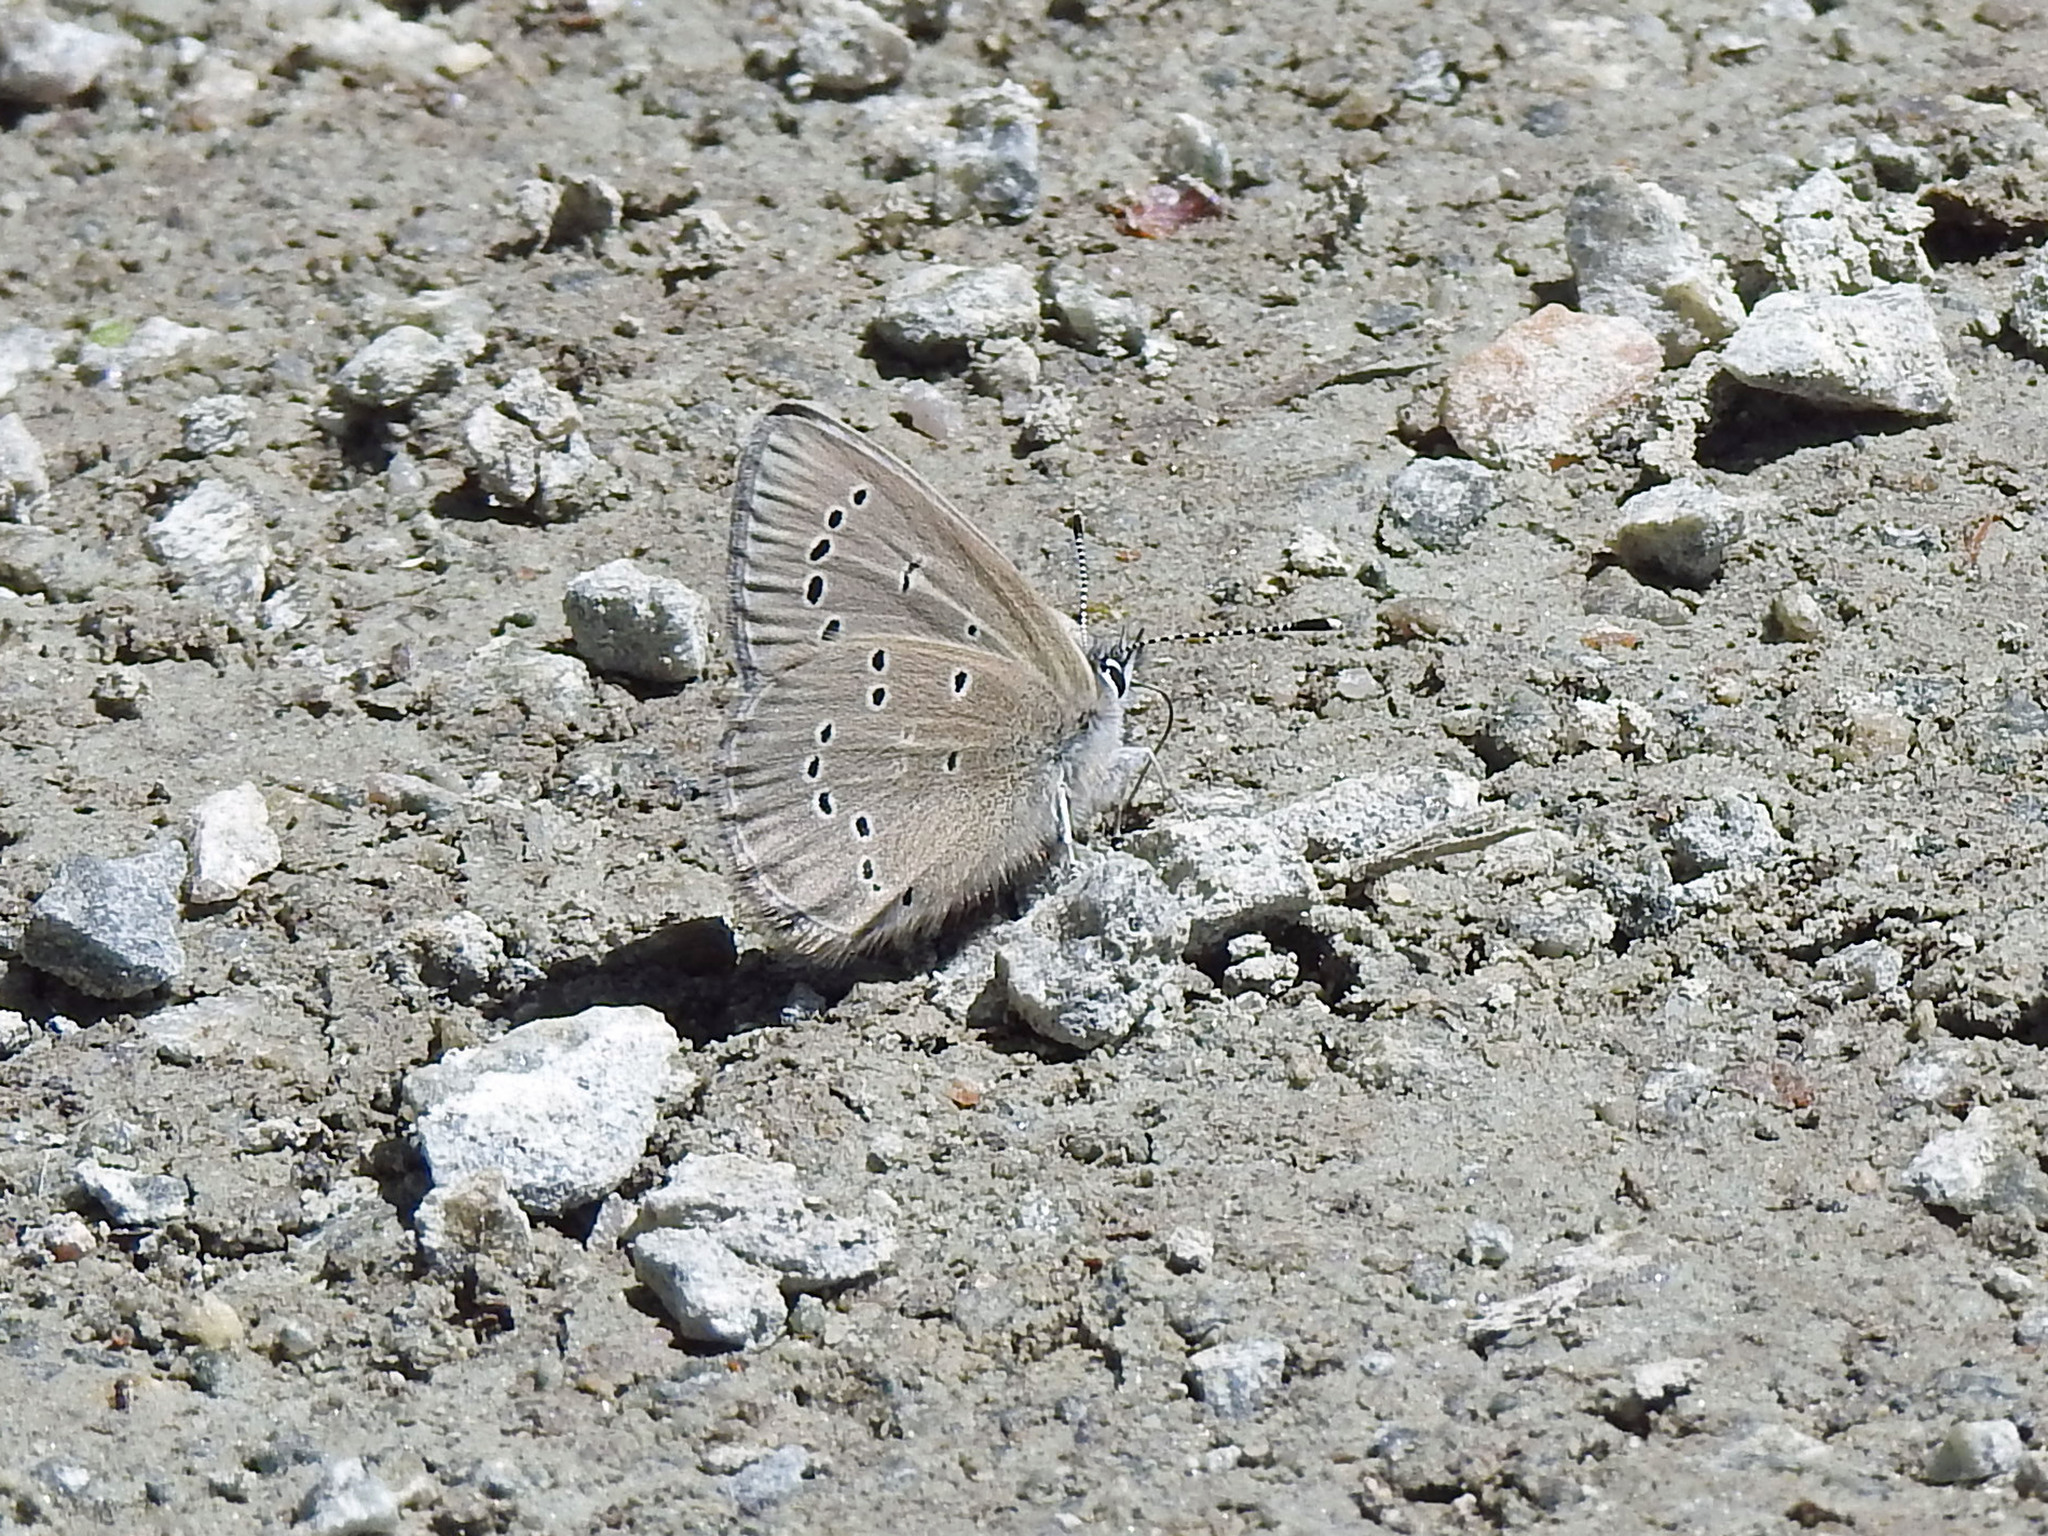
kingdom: Animalia
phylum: Arthropoda
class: Insecta
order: Lepidoptera
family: Lycaenidae
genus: Glaucopsyche
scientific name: Glaucopsyche lygdamus
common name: Silvery blue
